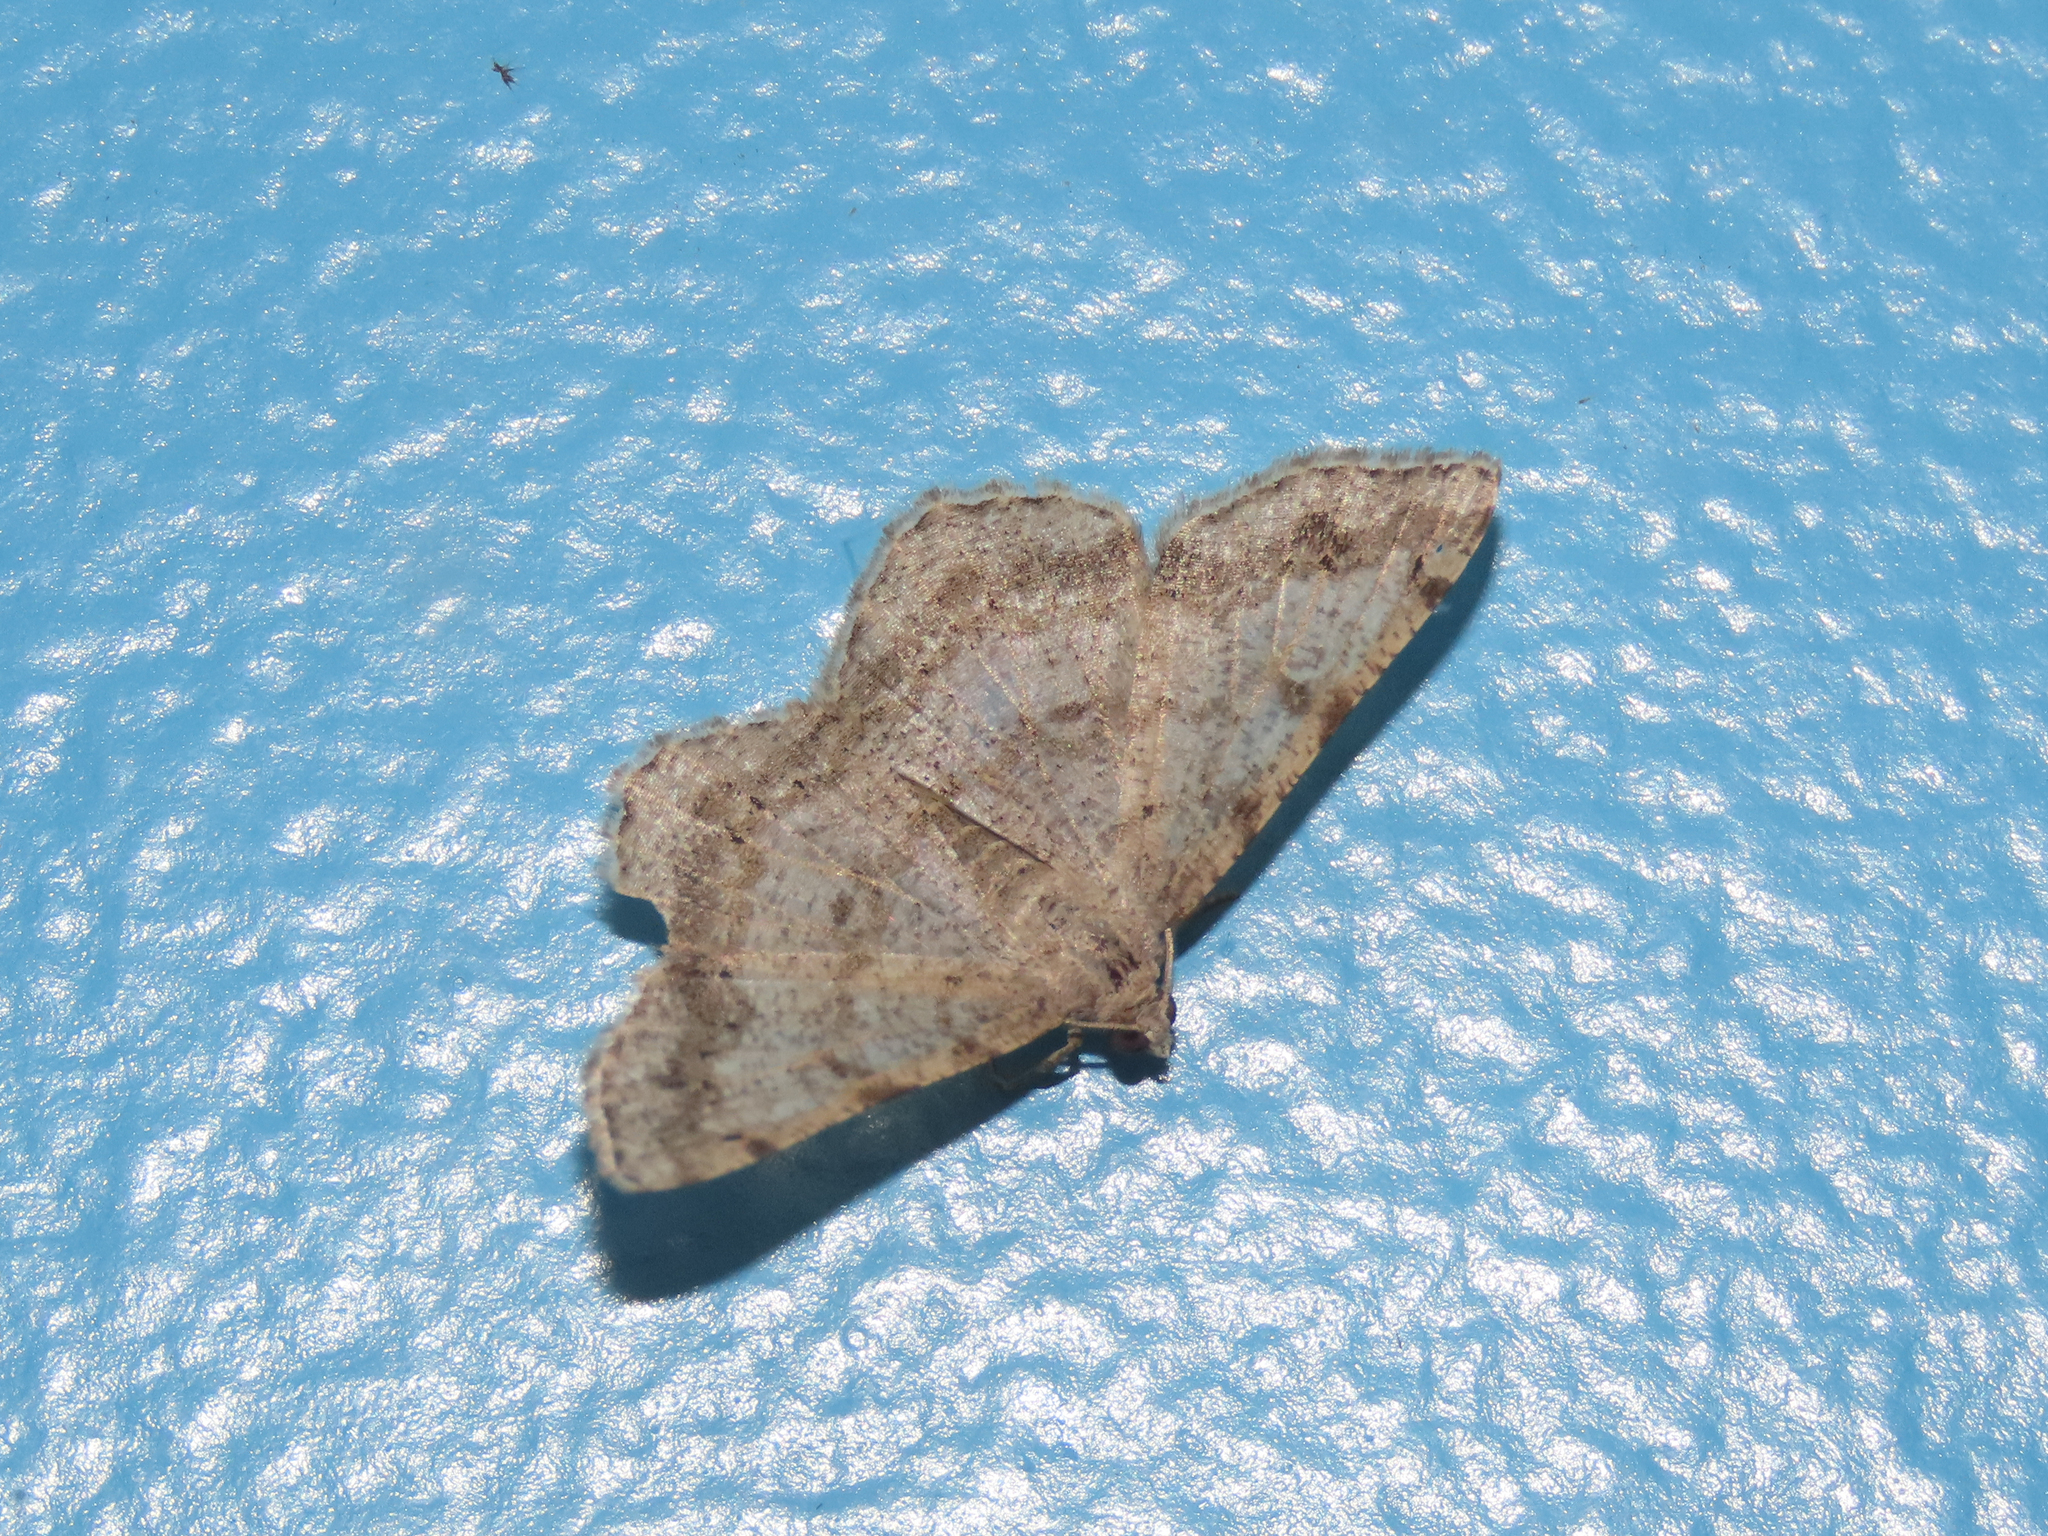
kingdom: Animalia
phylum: Arthropoda
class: Insecta
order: Lepidoptera
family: Geometridae
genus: Digrammia
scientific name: Digrammia ocellinata
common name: Faint-spotted angle
